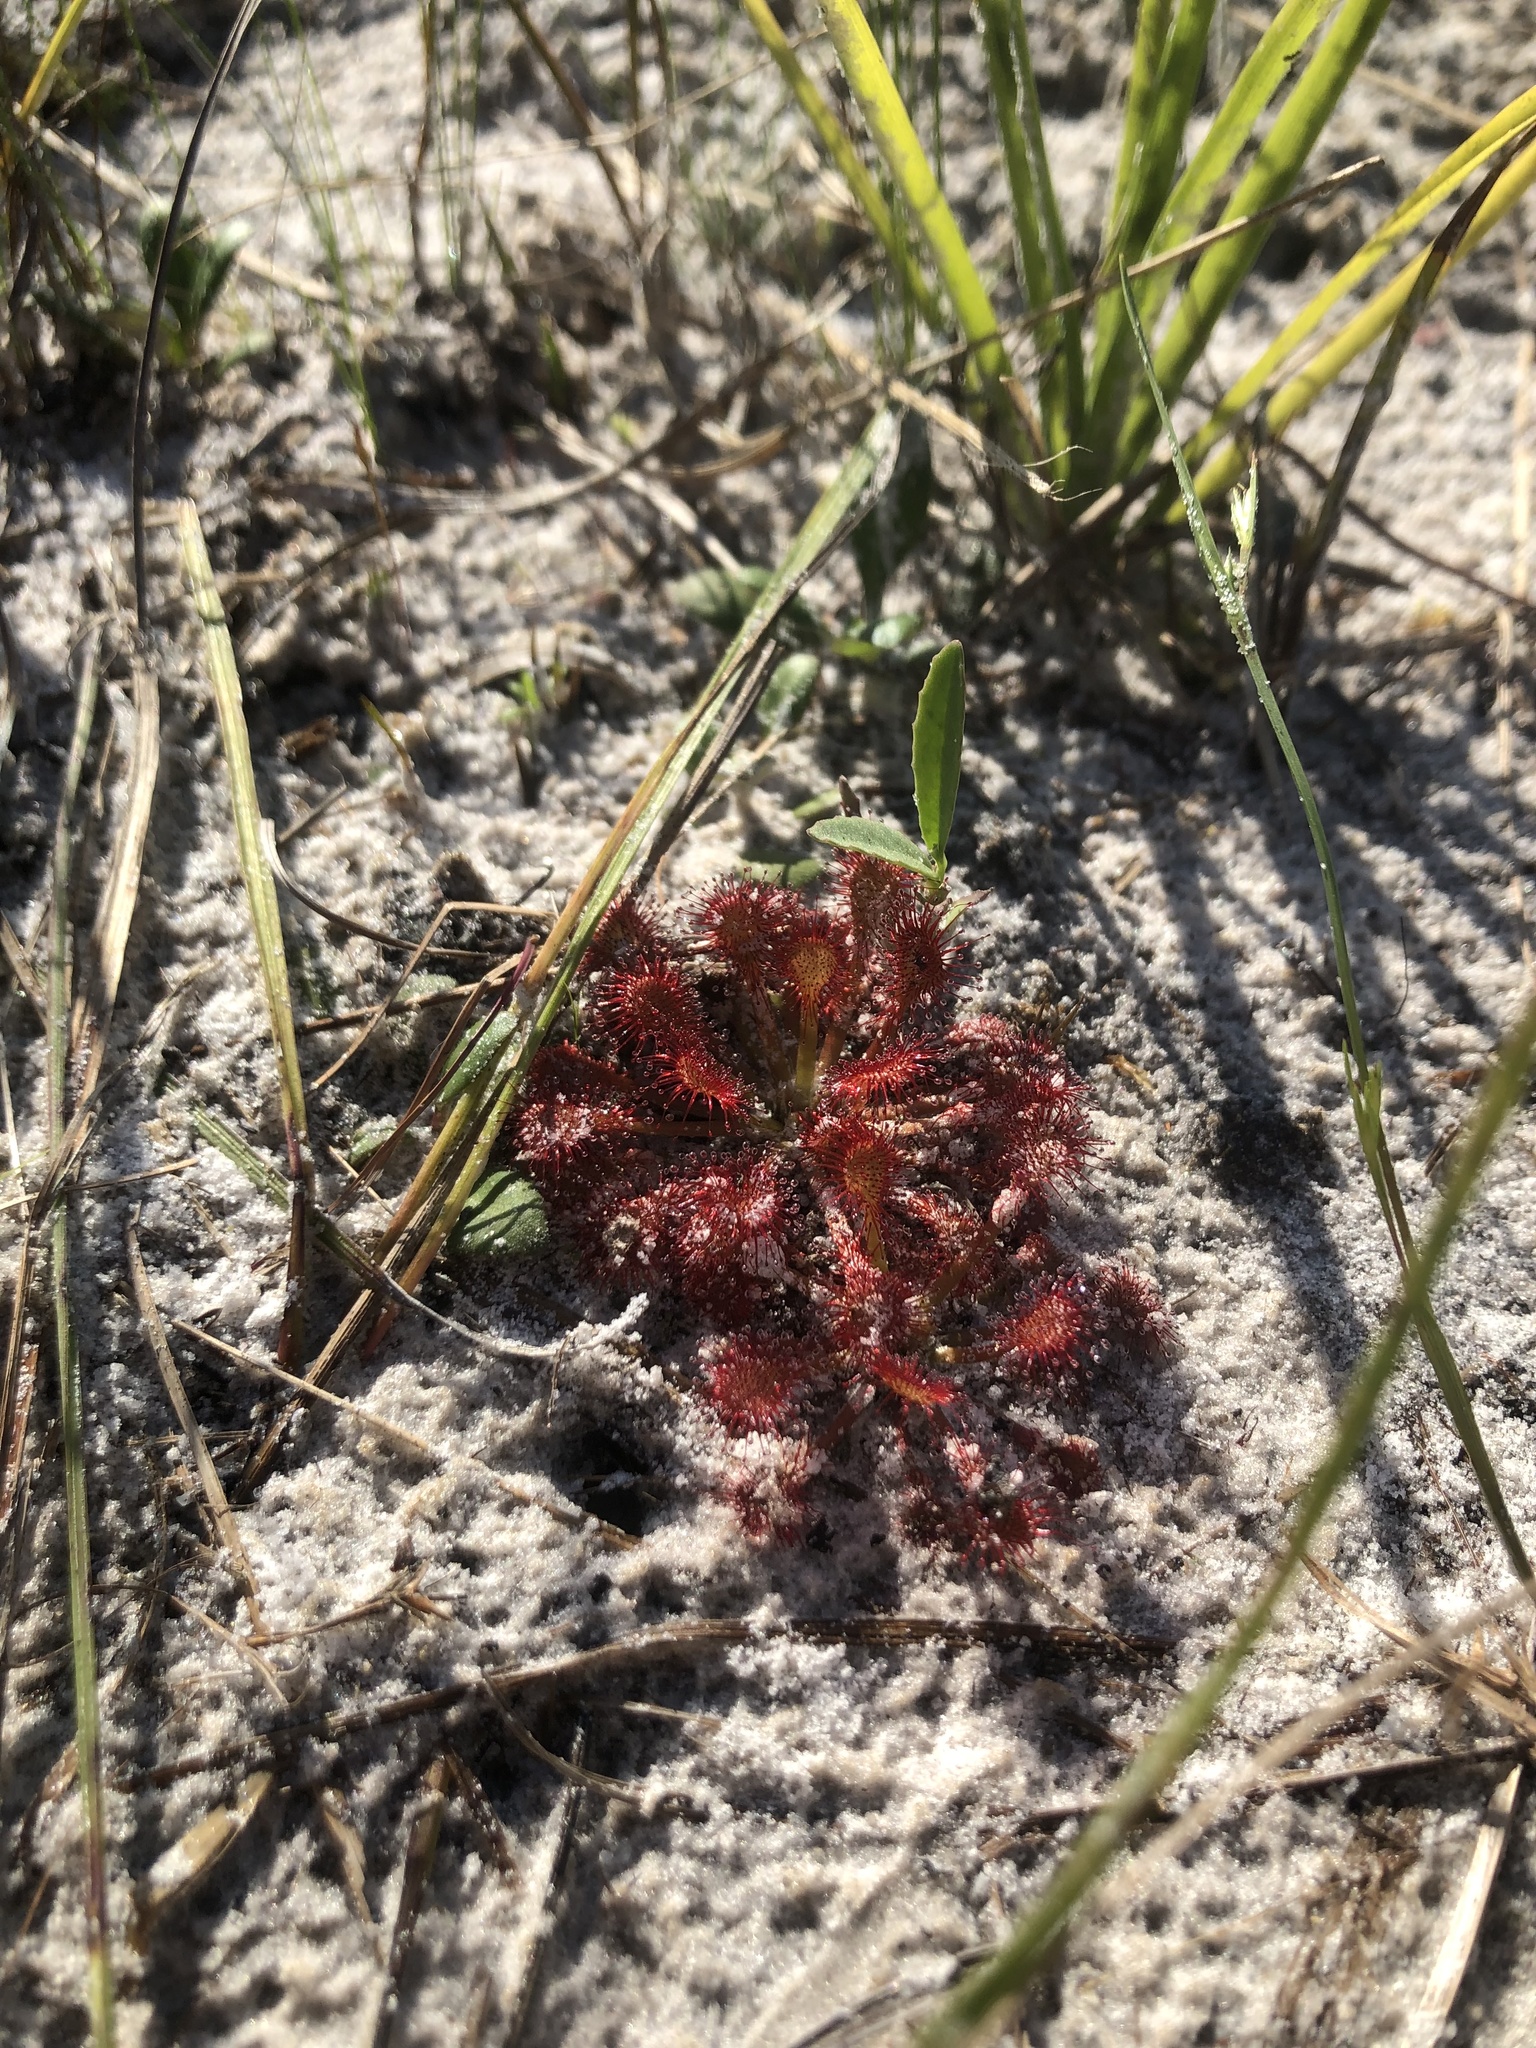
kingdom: Plantae
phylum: Tracheophyta
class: Magnoliopsida
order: Caryophyllales
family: Droseraceae
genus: Drosera
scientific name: Drosera capillaris
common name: Pink sundew
